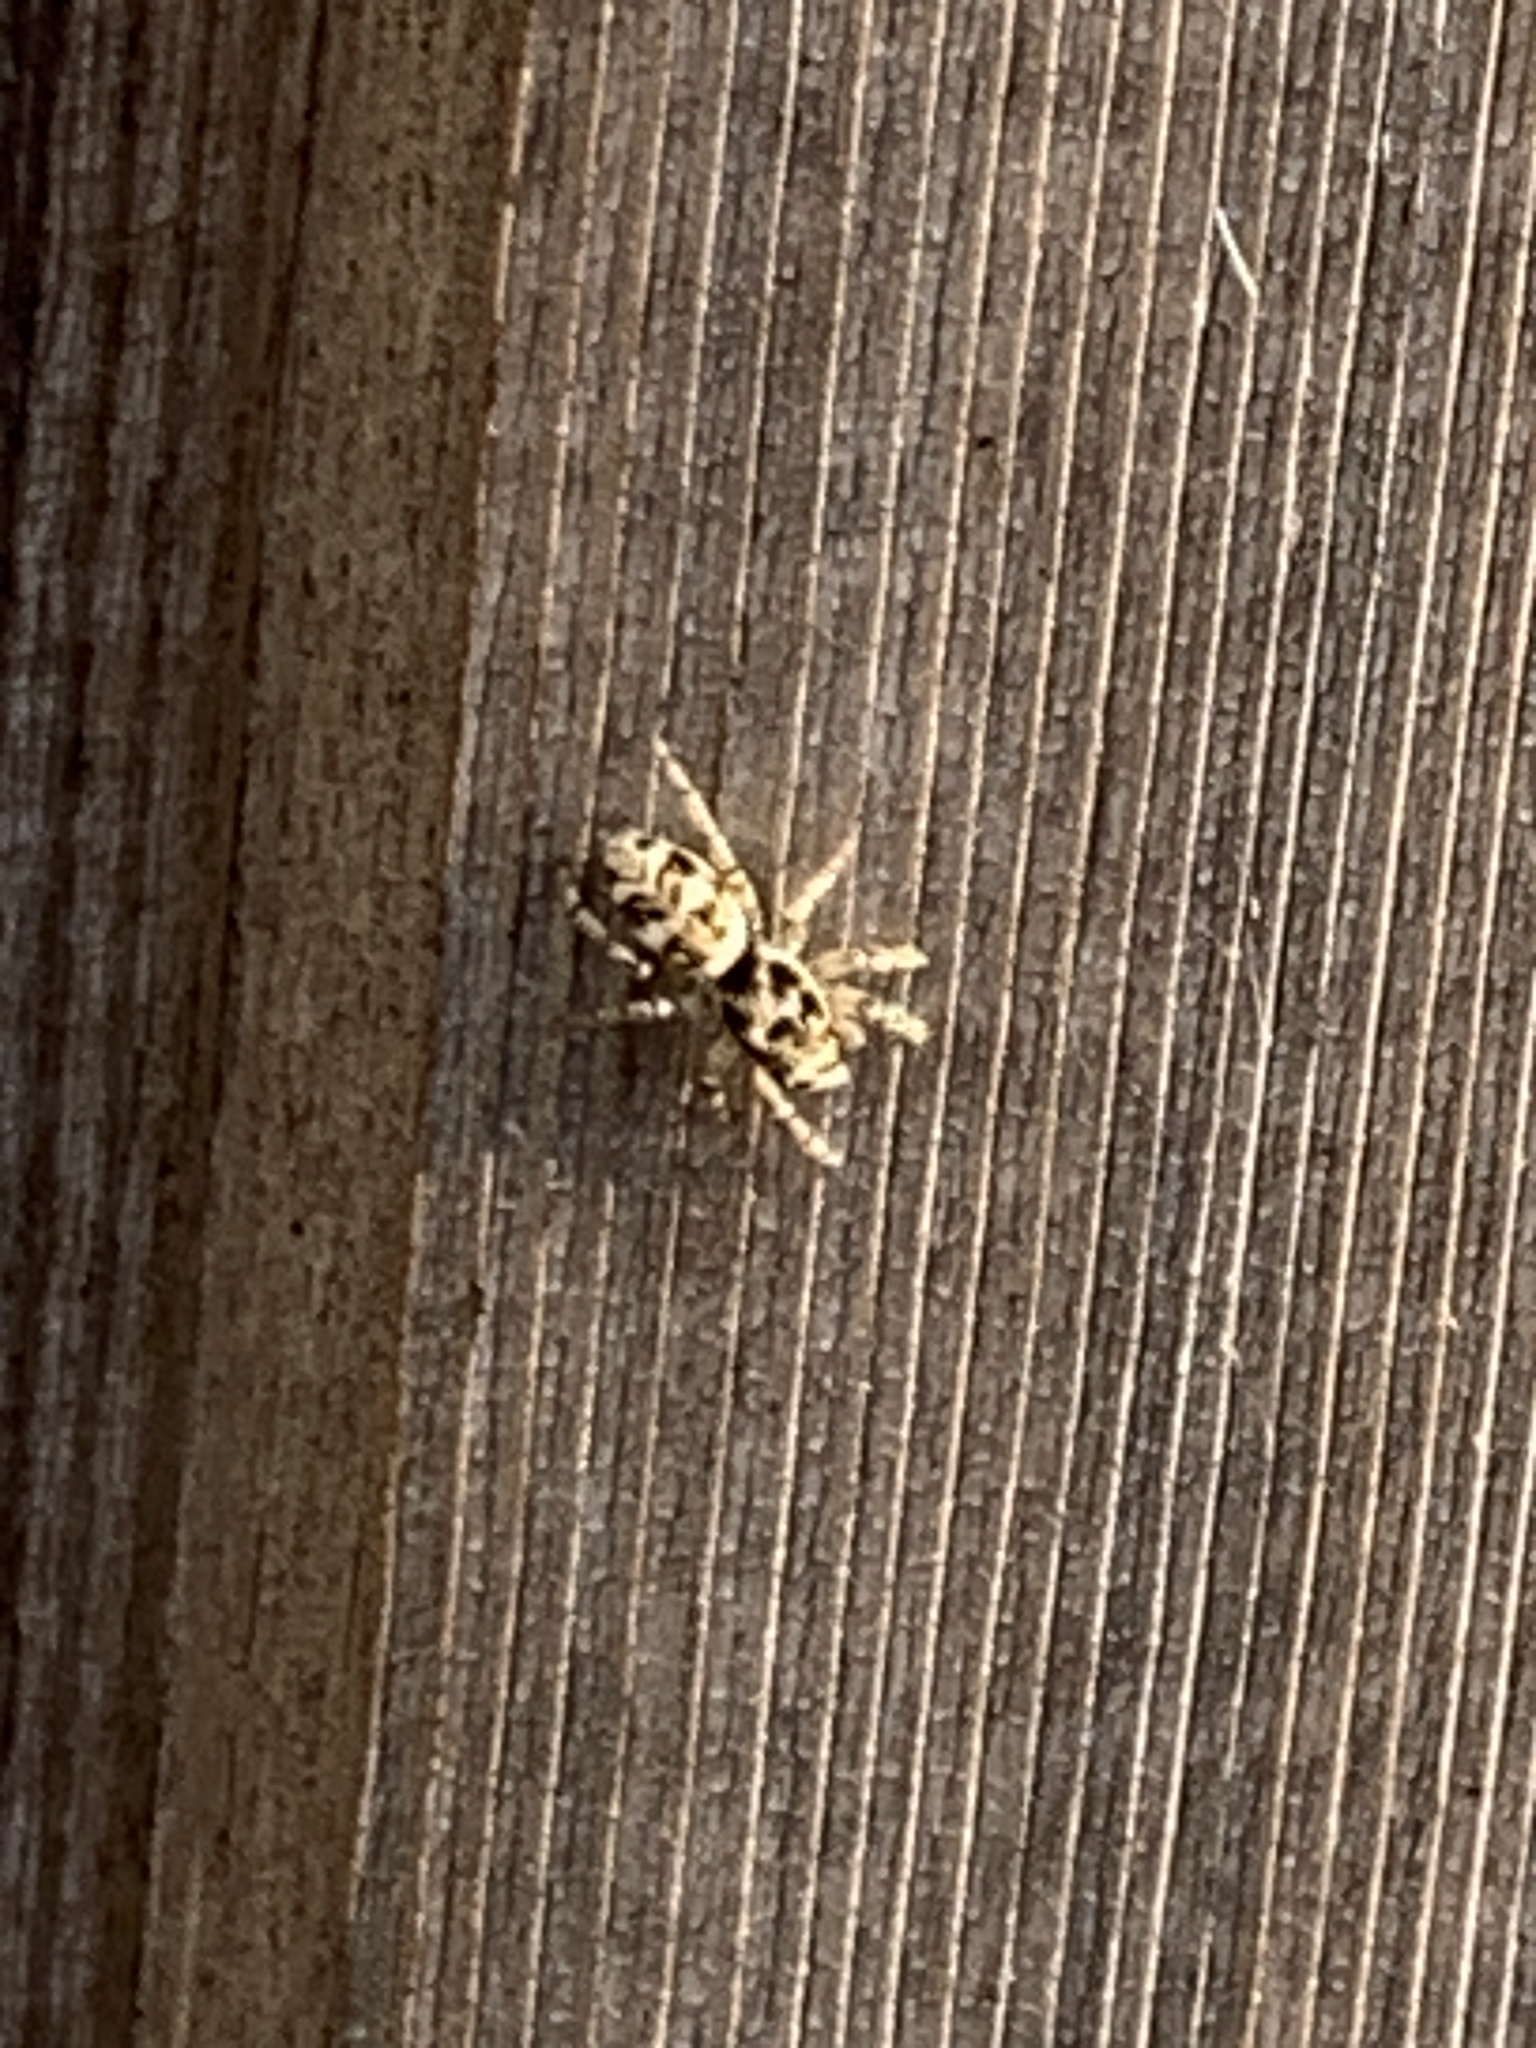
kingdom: Animalia
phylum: Arthropoda
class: Arachnida
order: Araneae
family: Salticidae
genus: Salticus
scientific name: Salticus scenicus
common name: Zebra jumper
